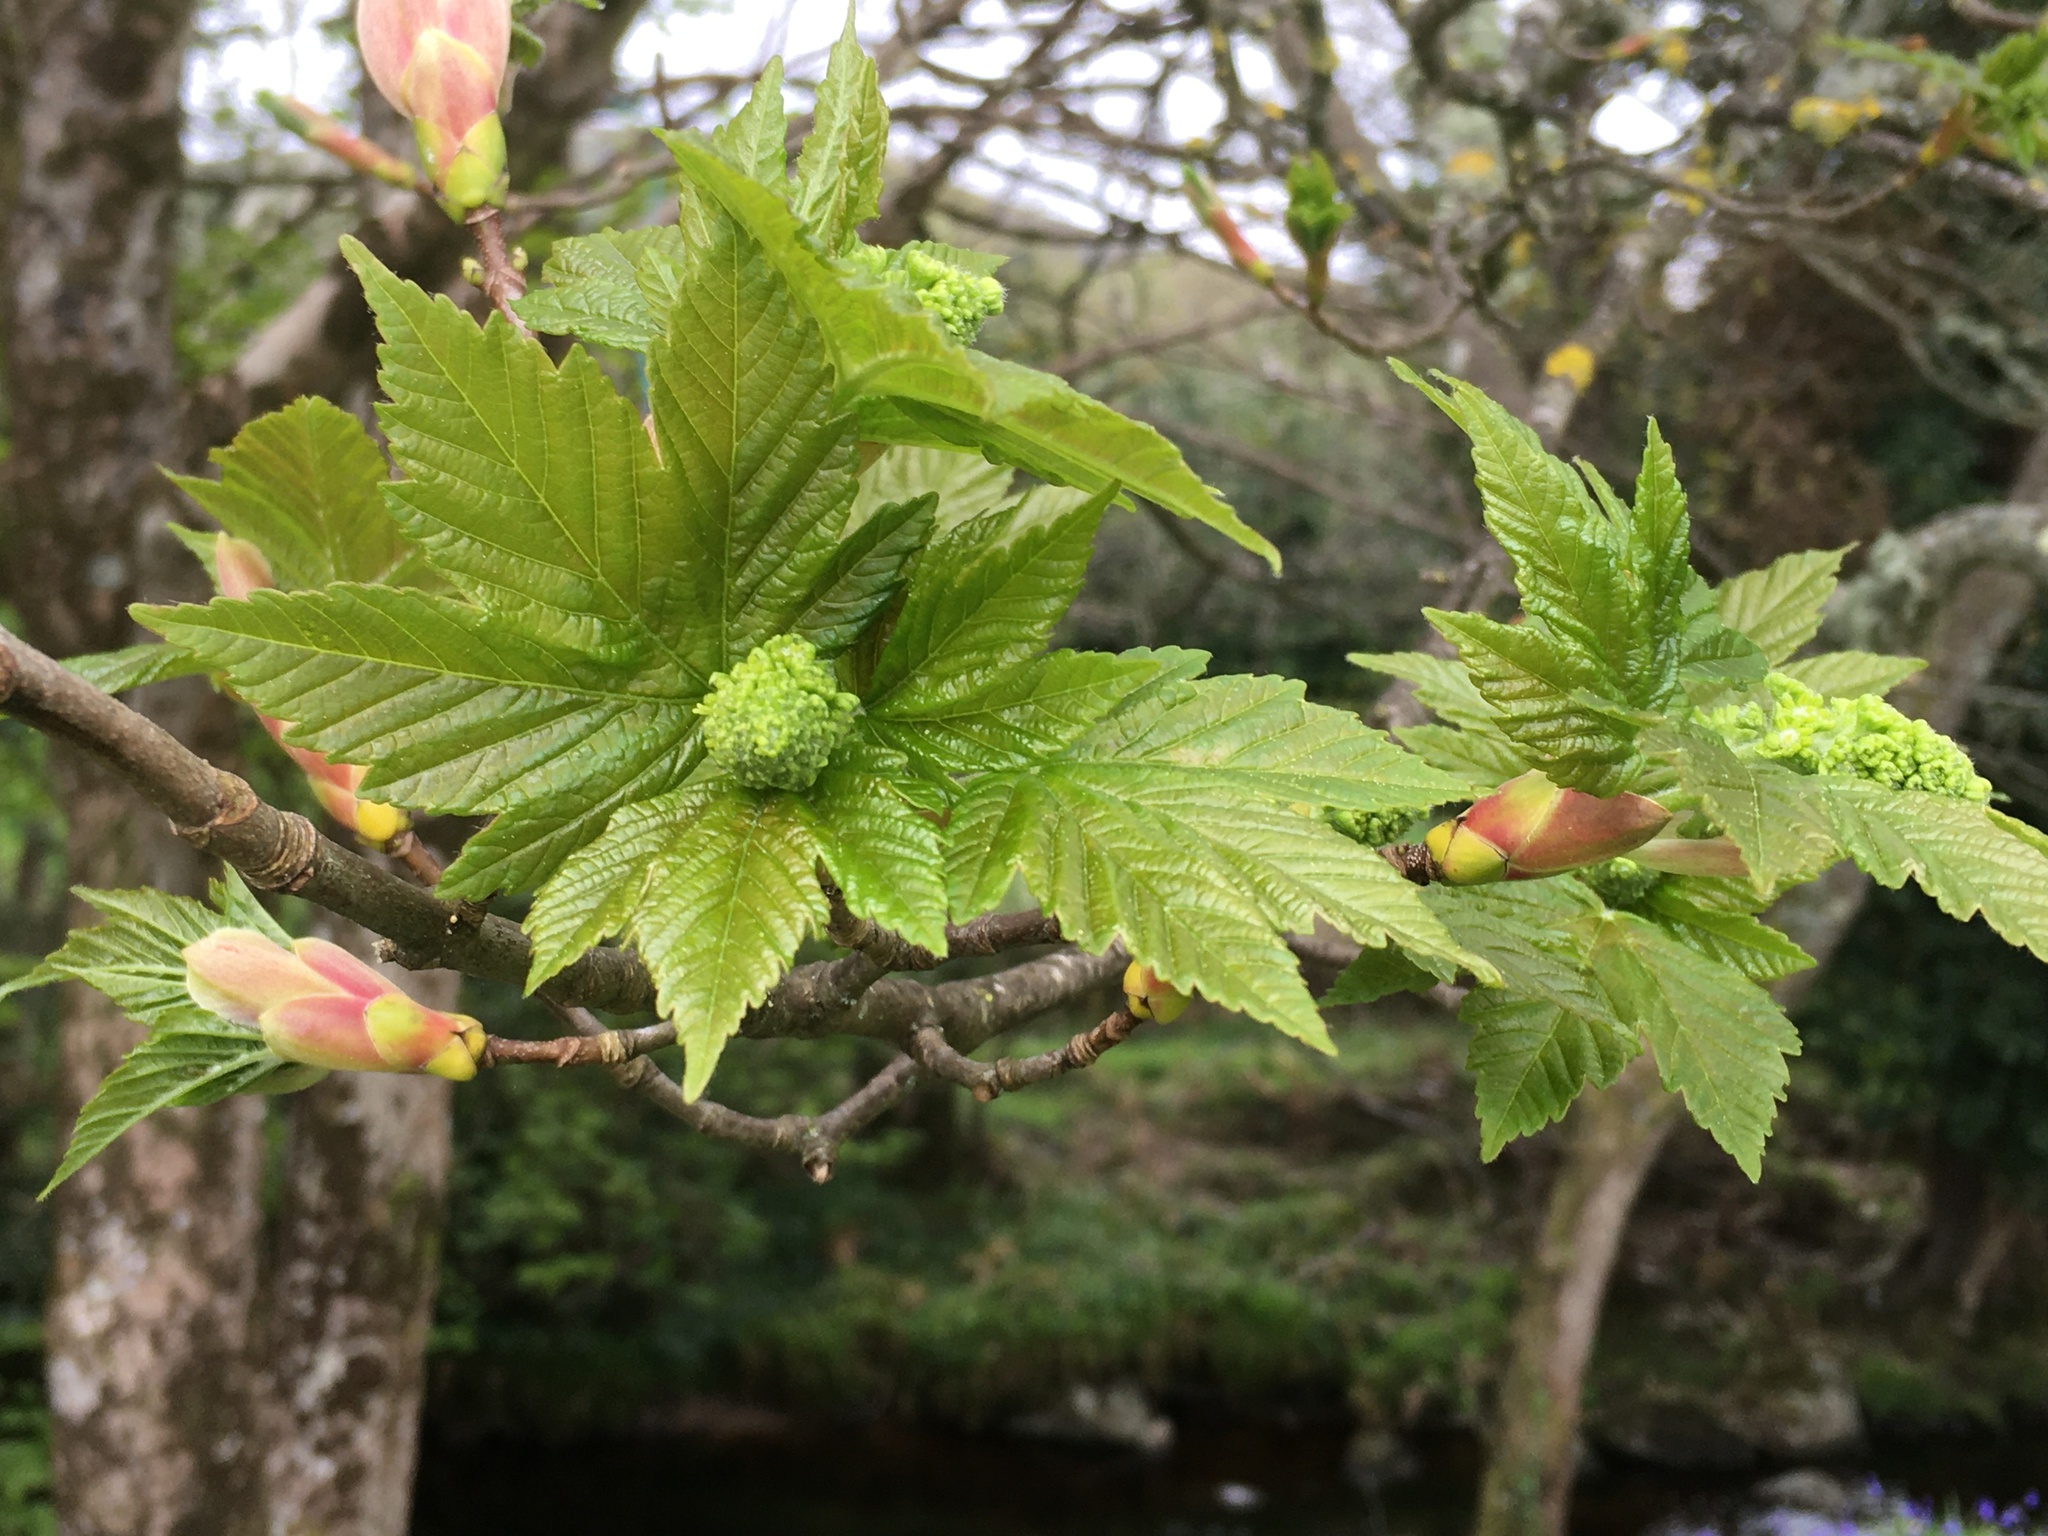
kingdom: Plantae
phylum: Tracheophyta
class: Magnoliopsida
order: Sapindales
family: Sapindaceae
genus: Acer
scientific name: Acer pseudoplatanus
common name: Sycamore
